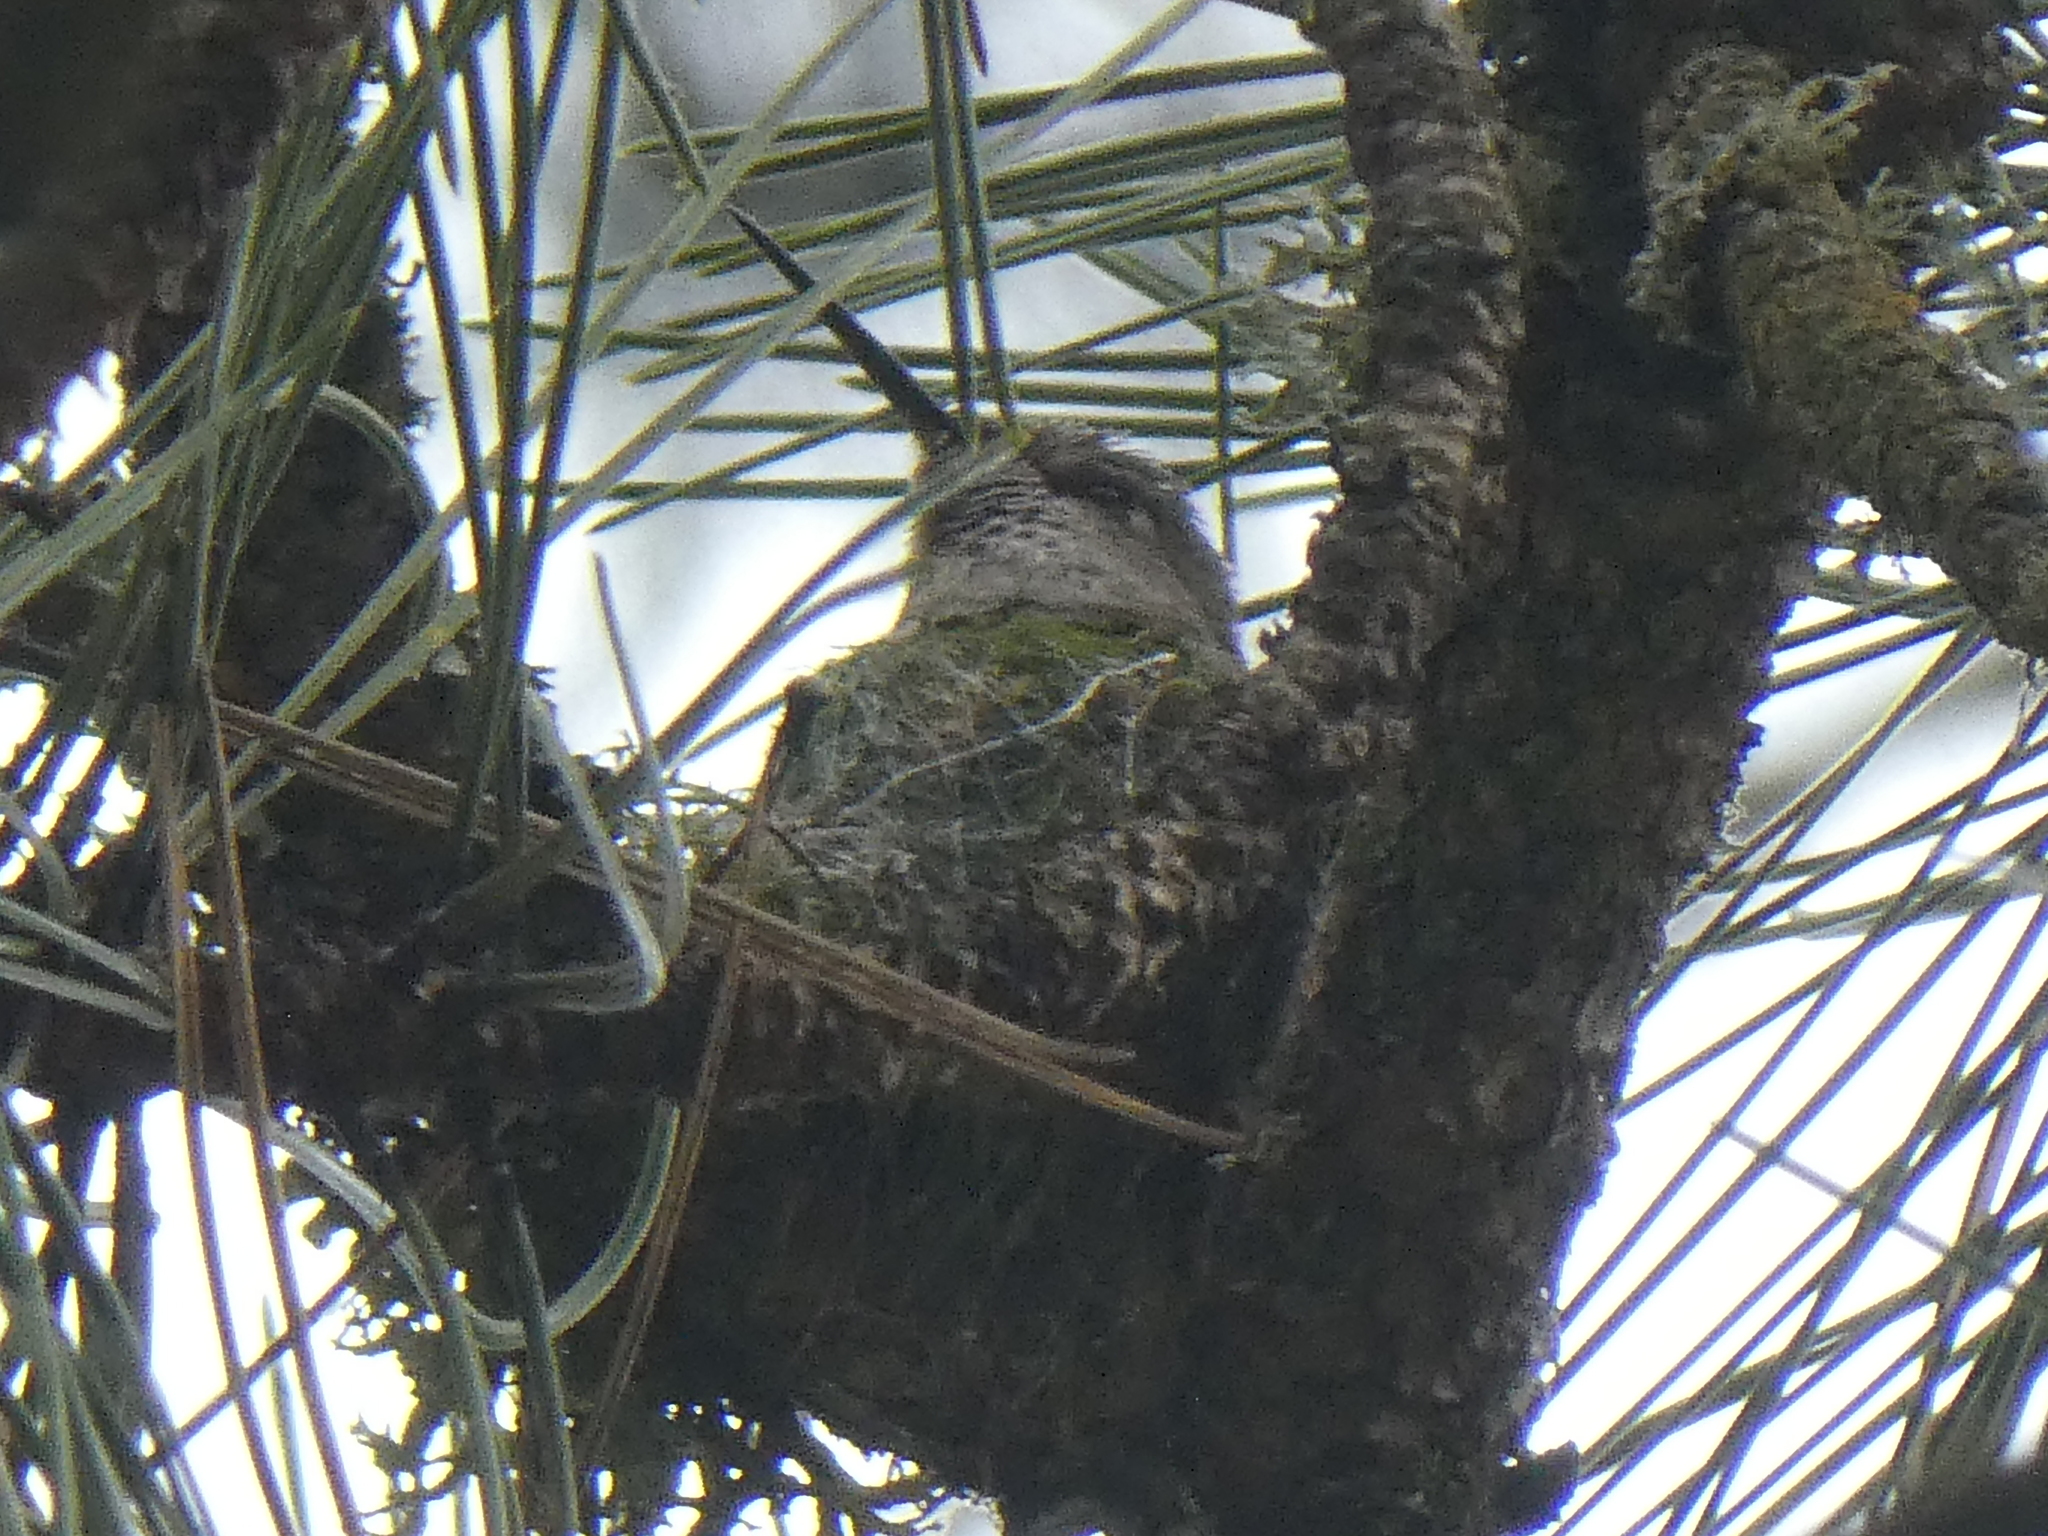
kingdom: Animalia
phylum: Chordata
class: Aves
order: Apodiformes
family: Trochilidae
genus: Calypte
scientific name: Calypte anna
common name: Anna's hummingbird
